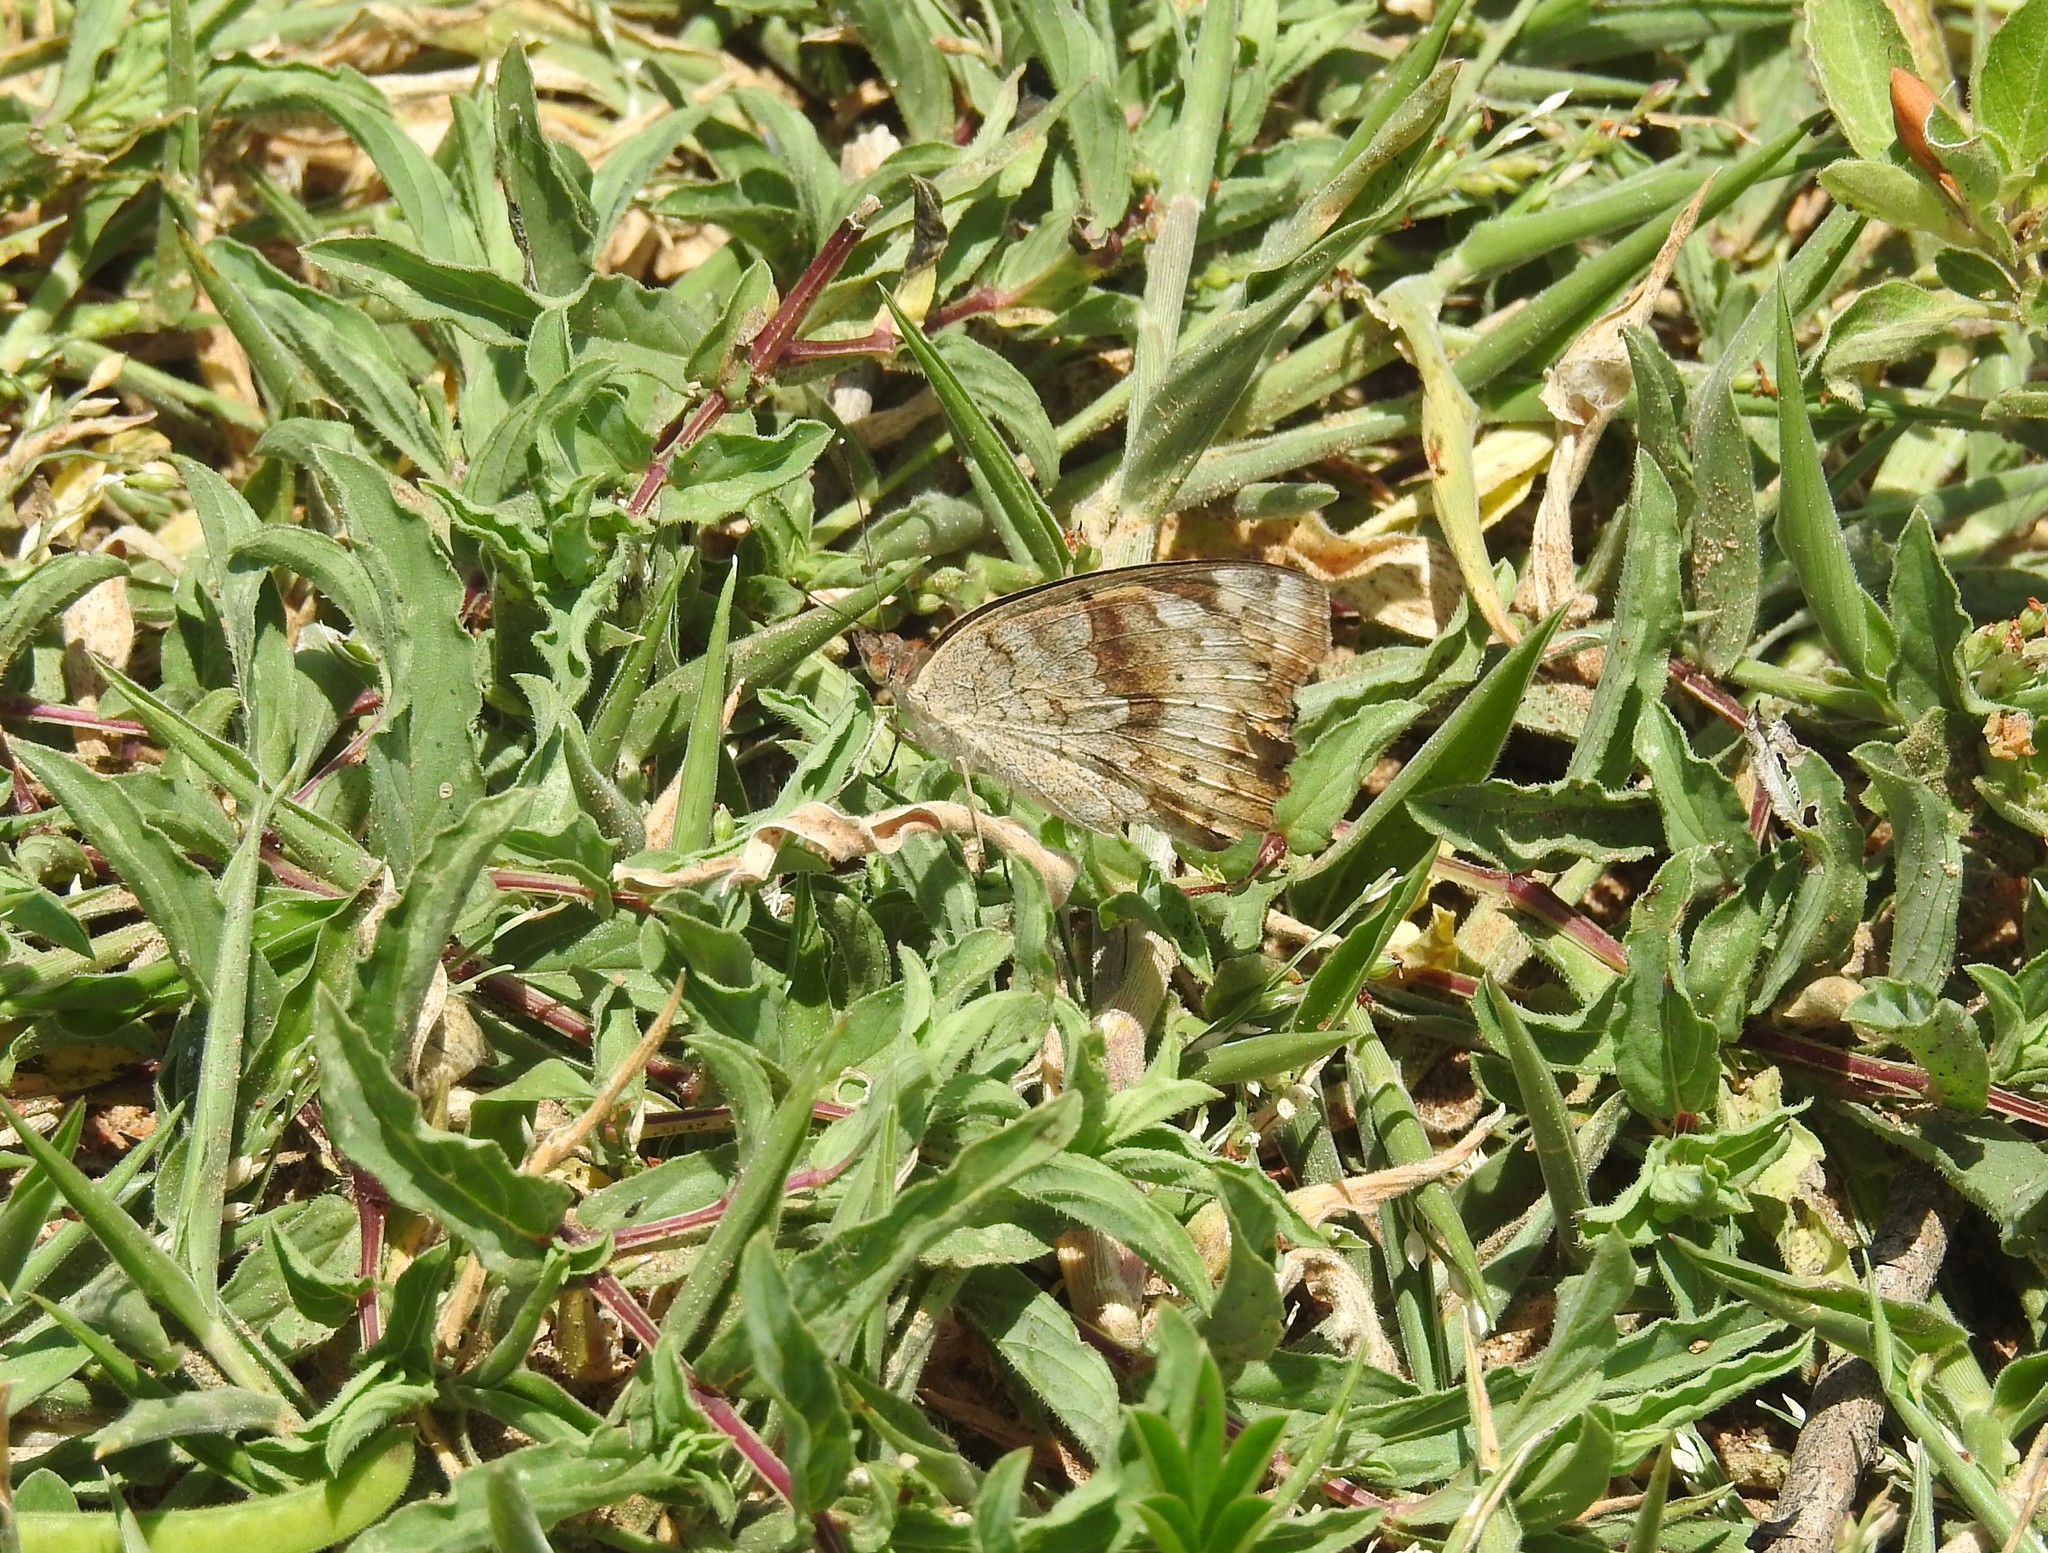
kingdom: Animalia
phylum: Arthropoda
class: Insecta
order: Lepidoptera
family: Nymphalidae
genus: Junonia
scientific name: Junonia hierta
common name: Yellow pansy
